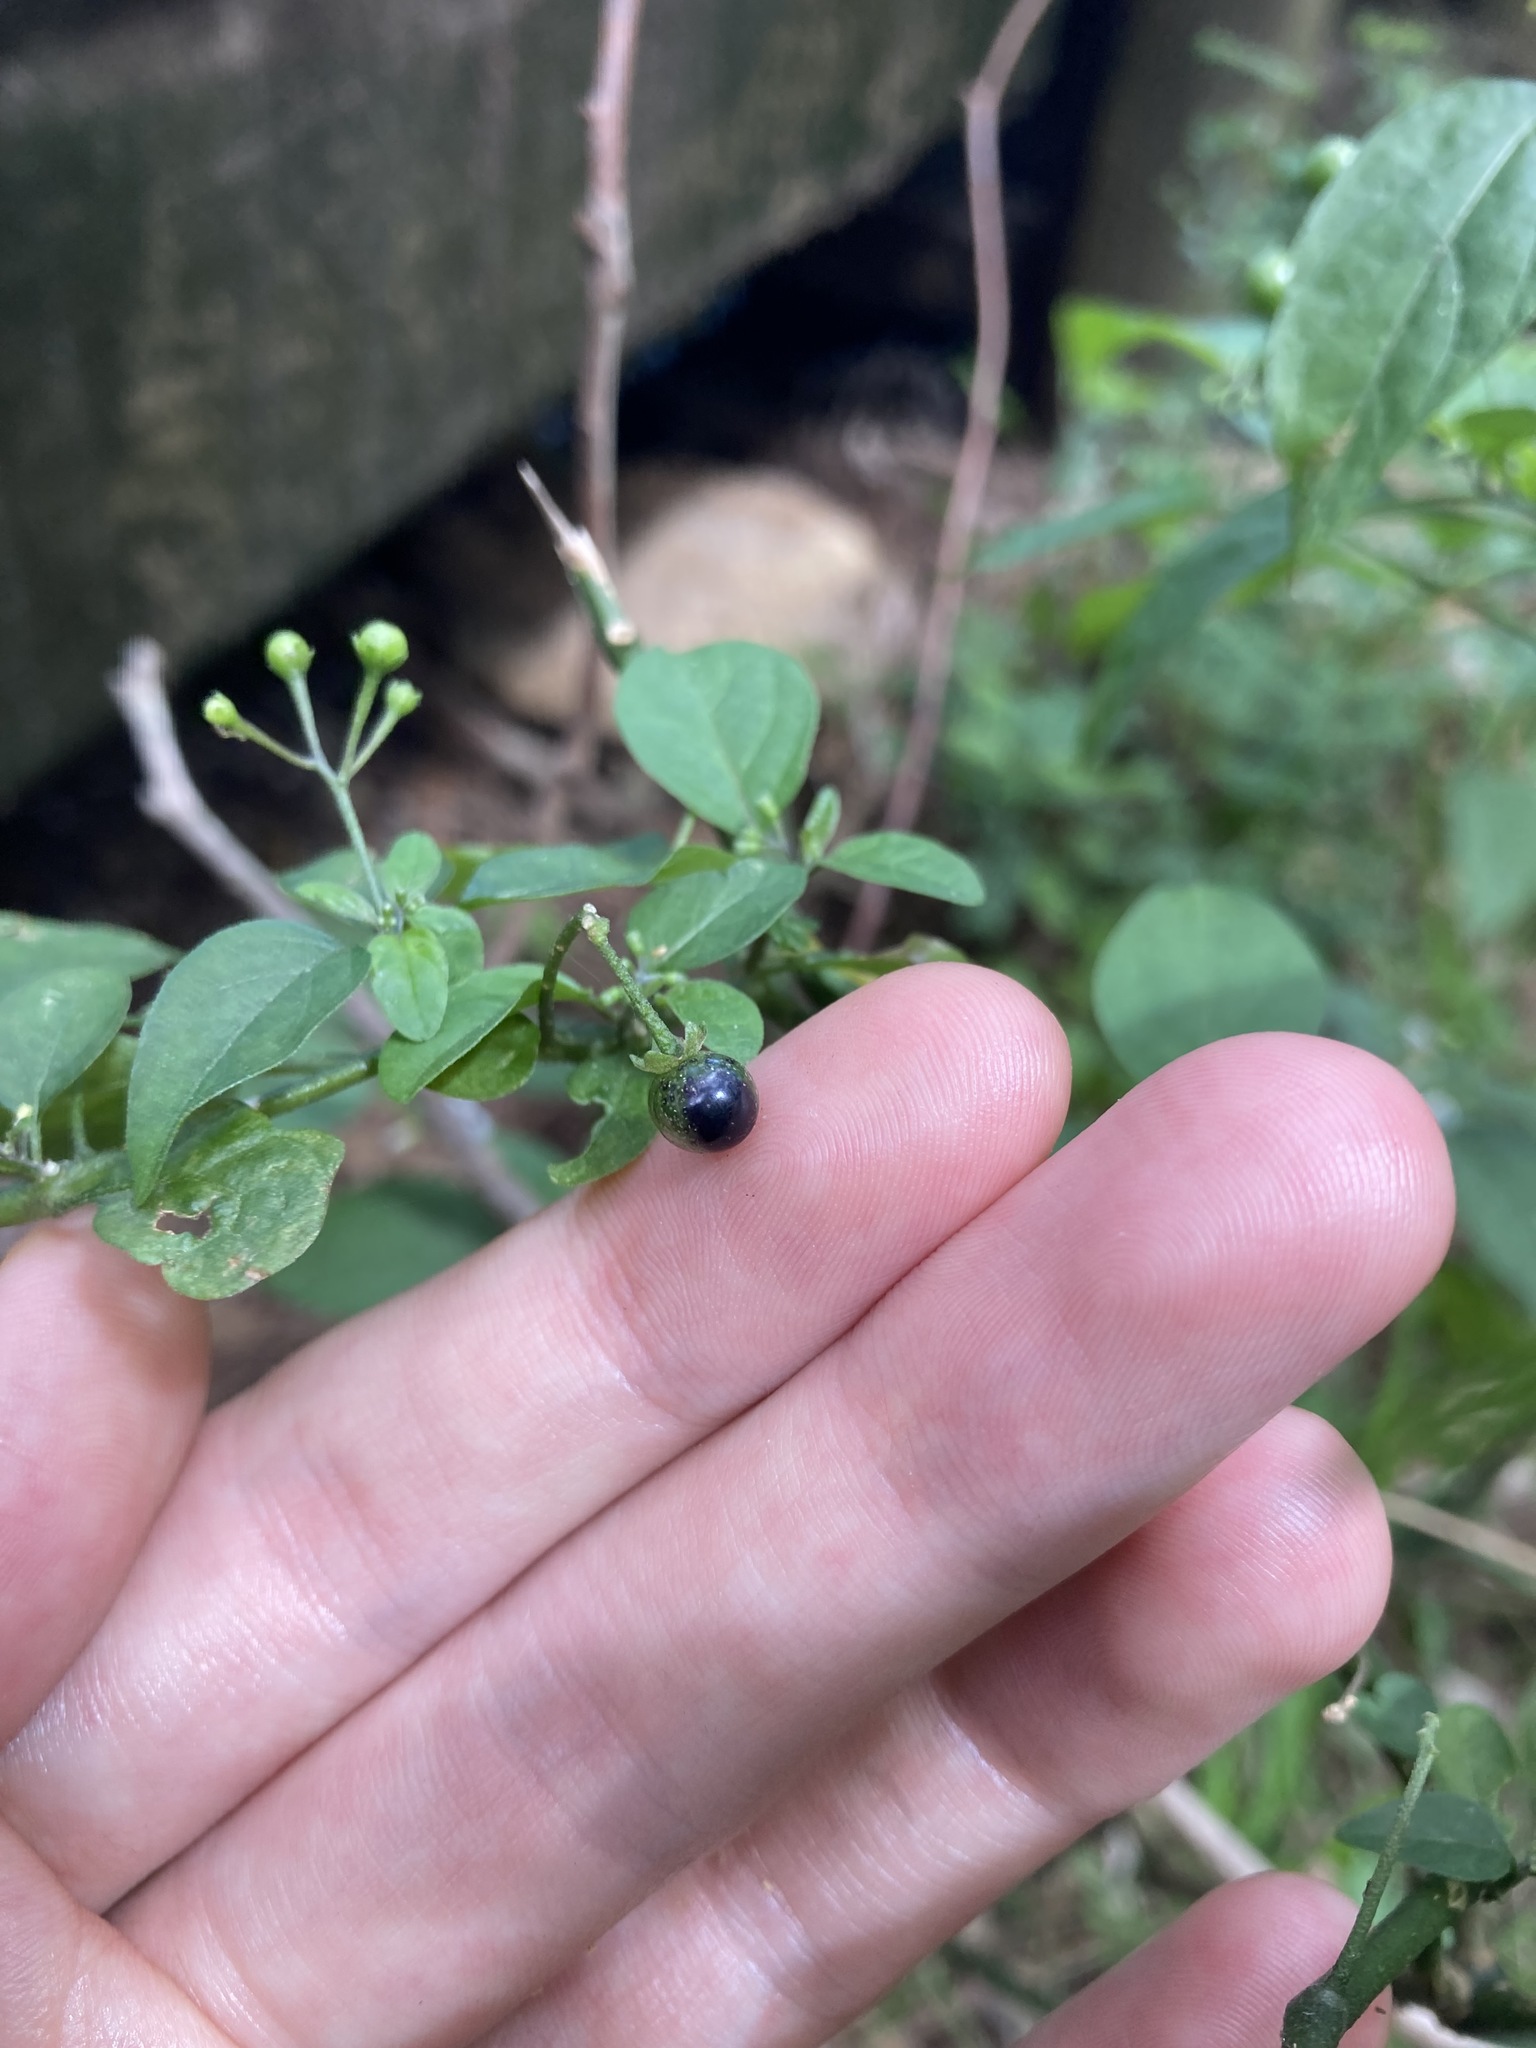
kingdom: Plantae
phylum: Tracheophyta
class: Magnoliopsida
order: Solanales
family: Solanaceae
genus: Solanum
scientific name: Solanum americanum
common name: American black nightshade
